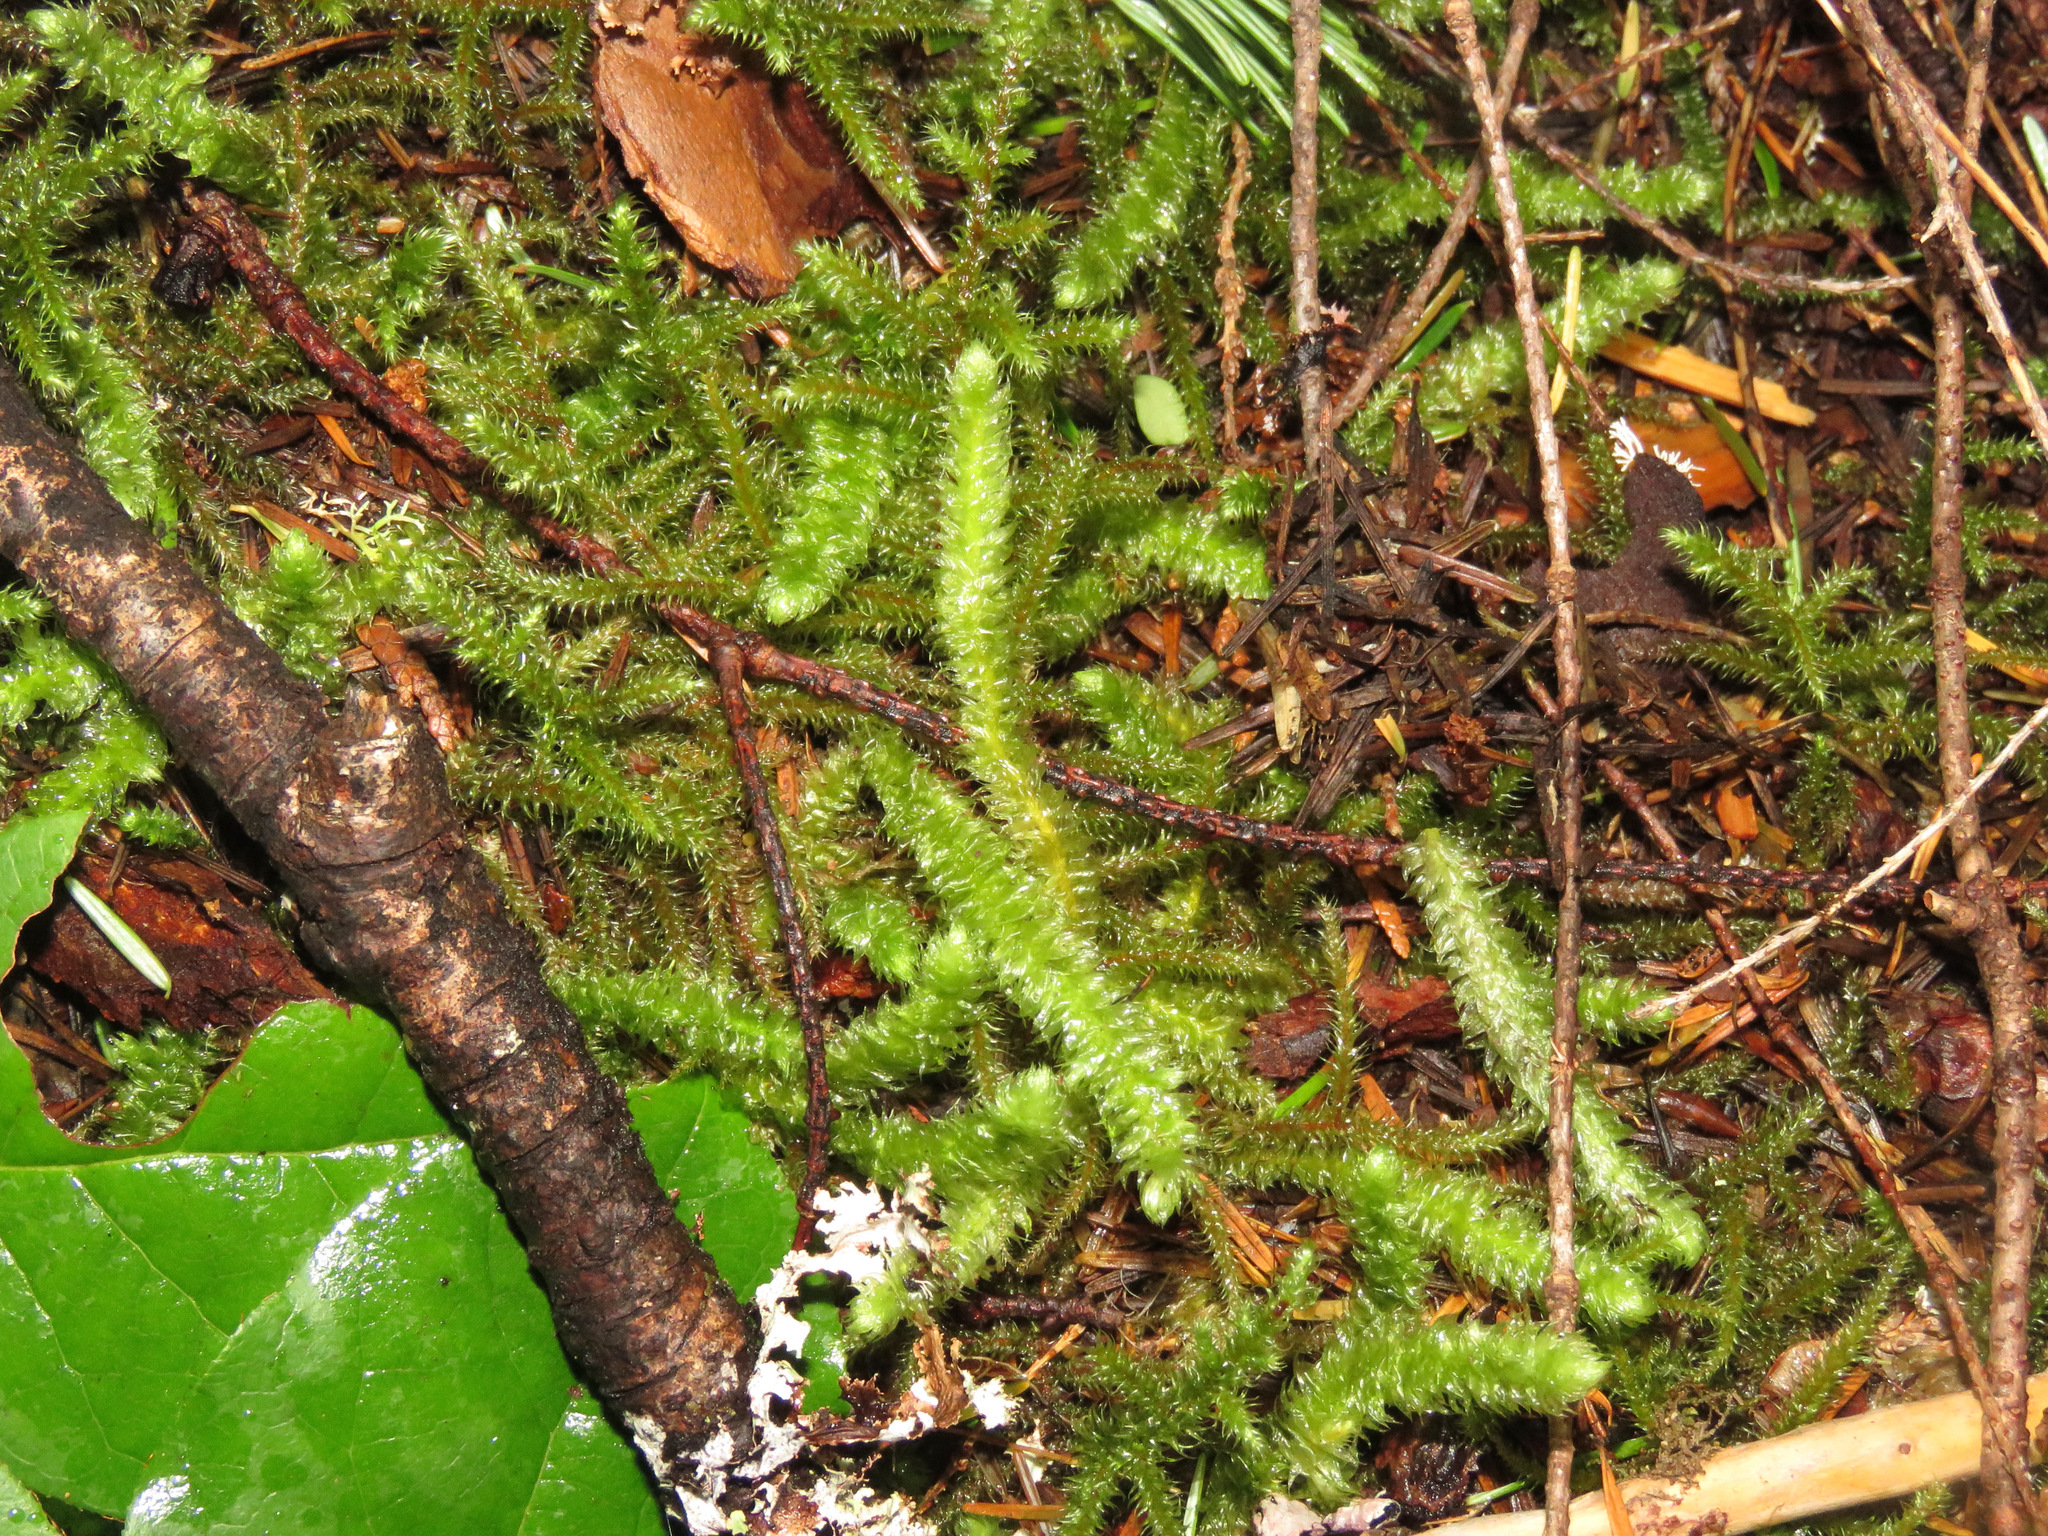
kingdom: Plantae
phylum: Bryophyta
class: Bryopsida
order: Hypnales
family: Hylocomiaceae
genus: Rhytidiopsis
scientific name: Rhytidiopsis robusta
